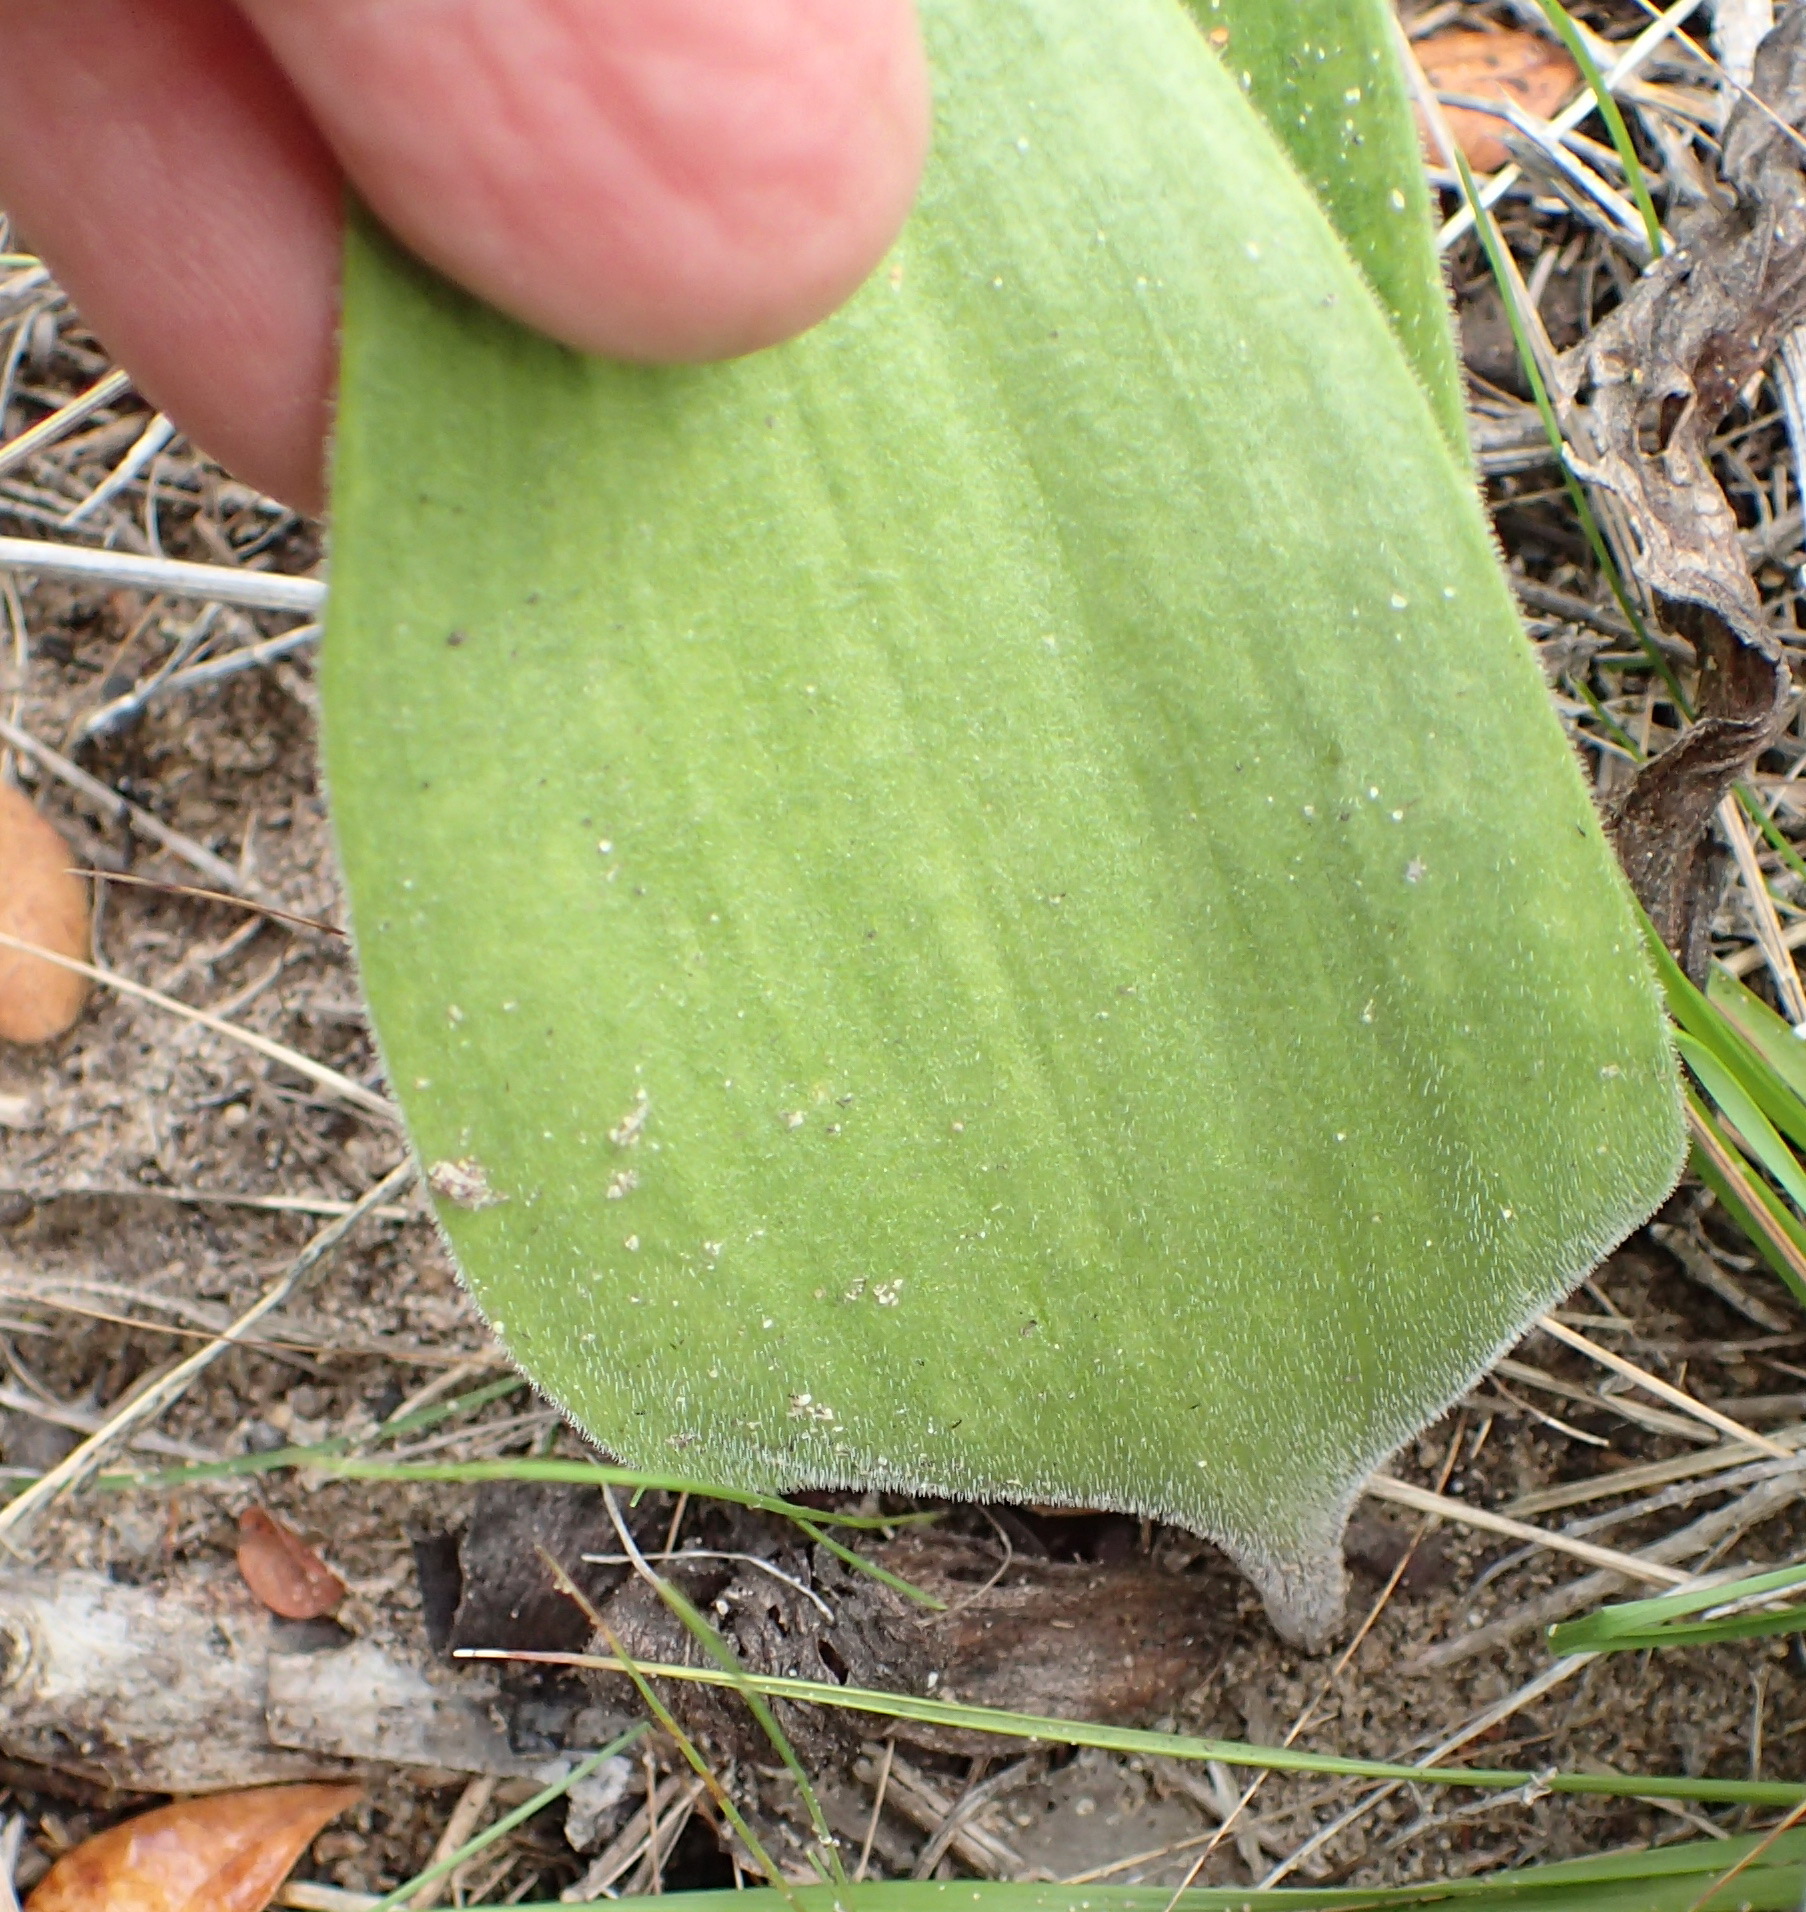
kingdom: Plantae
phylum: Tracheophyta
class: Liliopsida
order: Asparagales
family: Asparagaceae
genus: Eriospermum
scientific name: Eriospermum dielsianum
